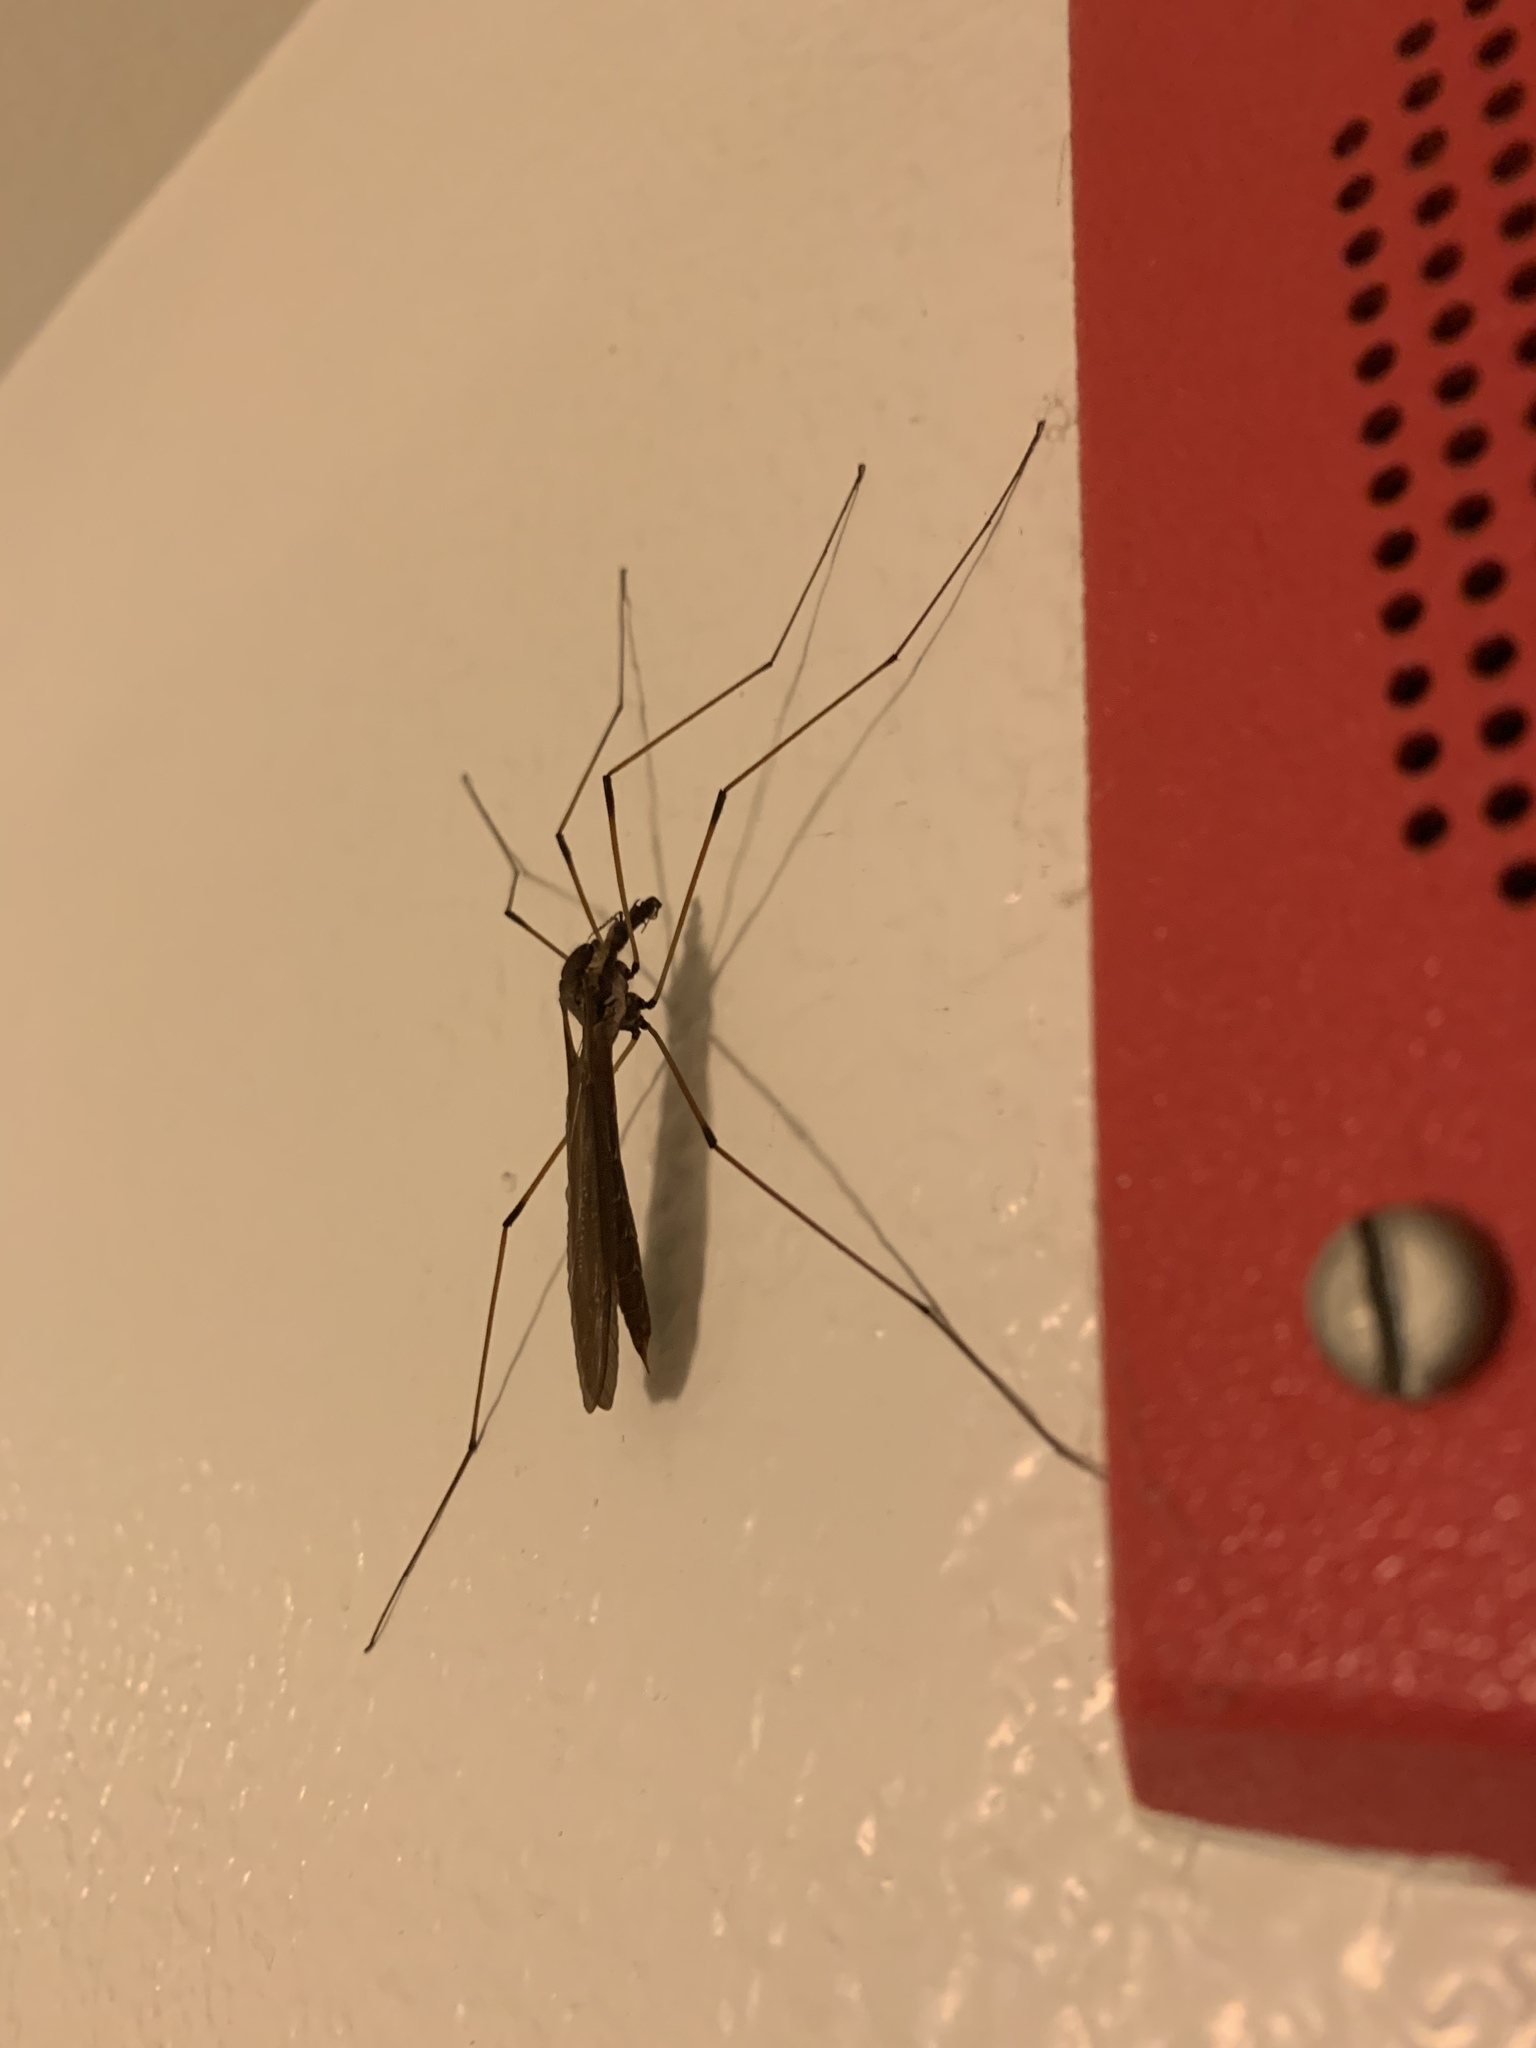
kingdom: Animalia
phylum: Arthropoda
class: Insecta
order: Diptera
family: Tipulidae
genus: Holorusia
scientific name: Holorusia hespera
